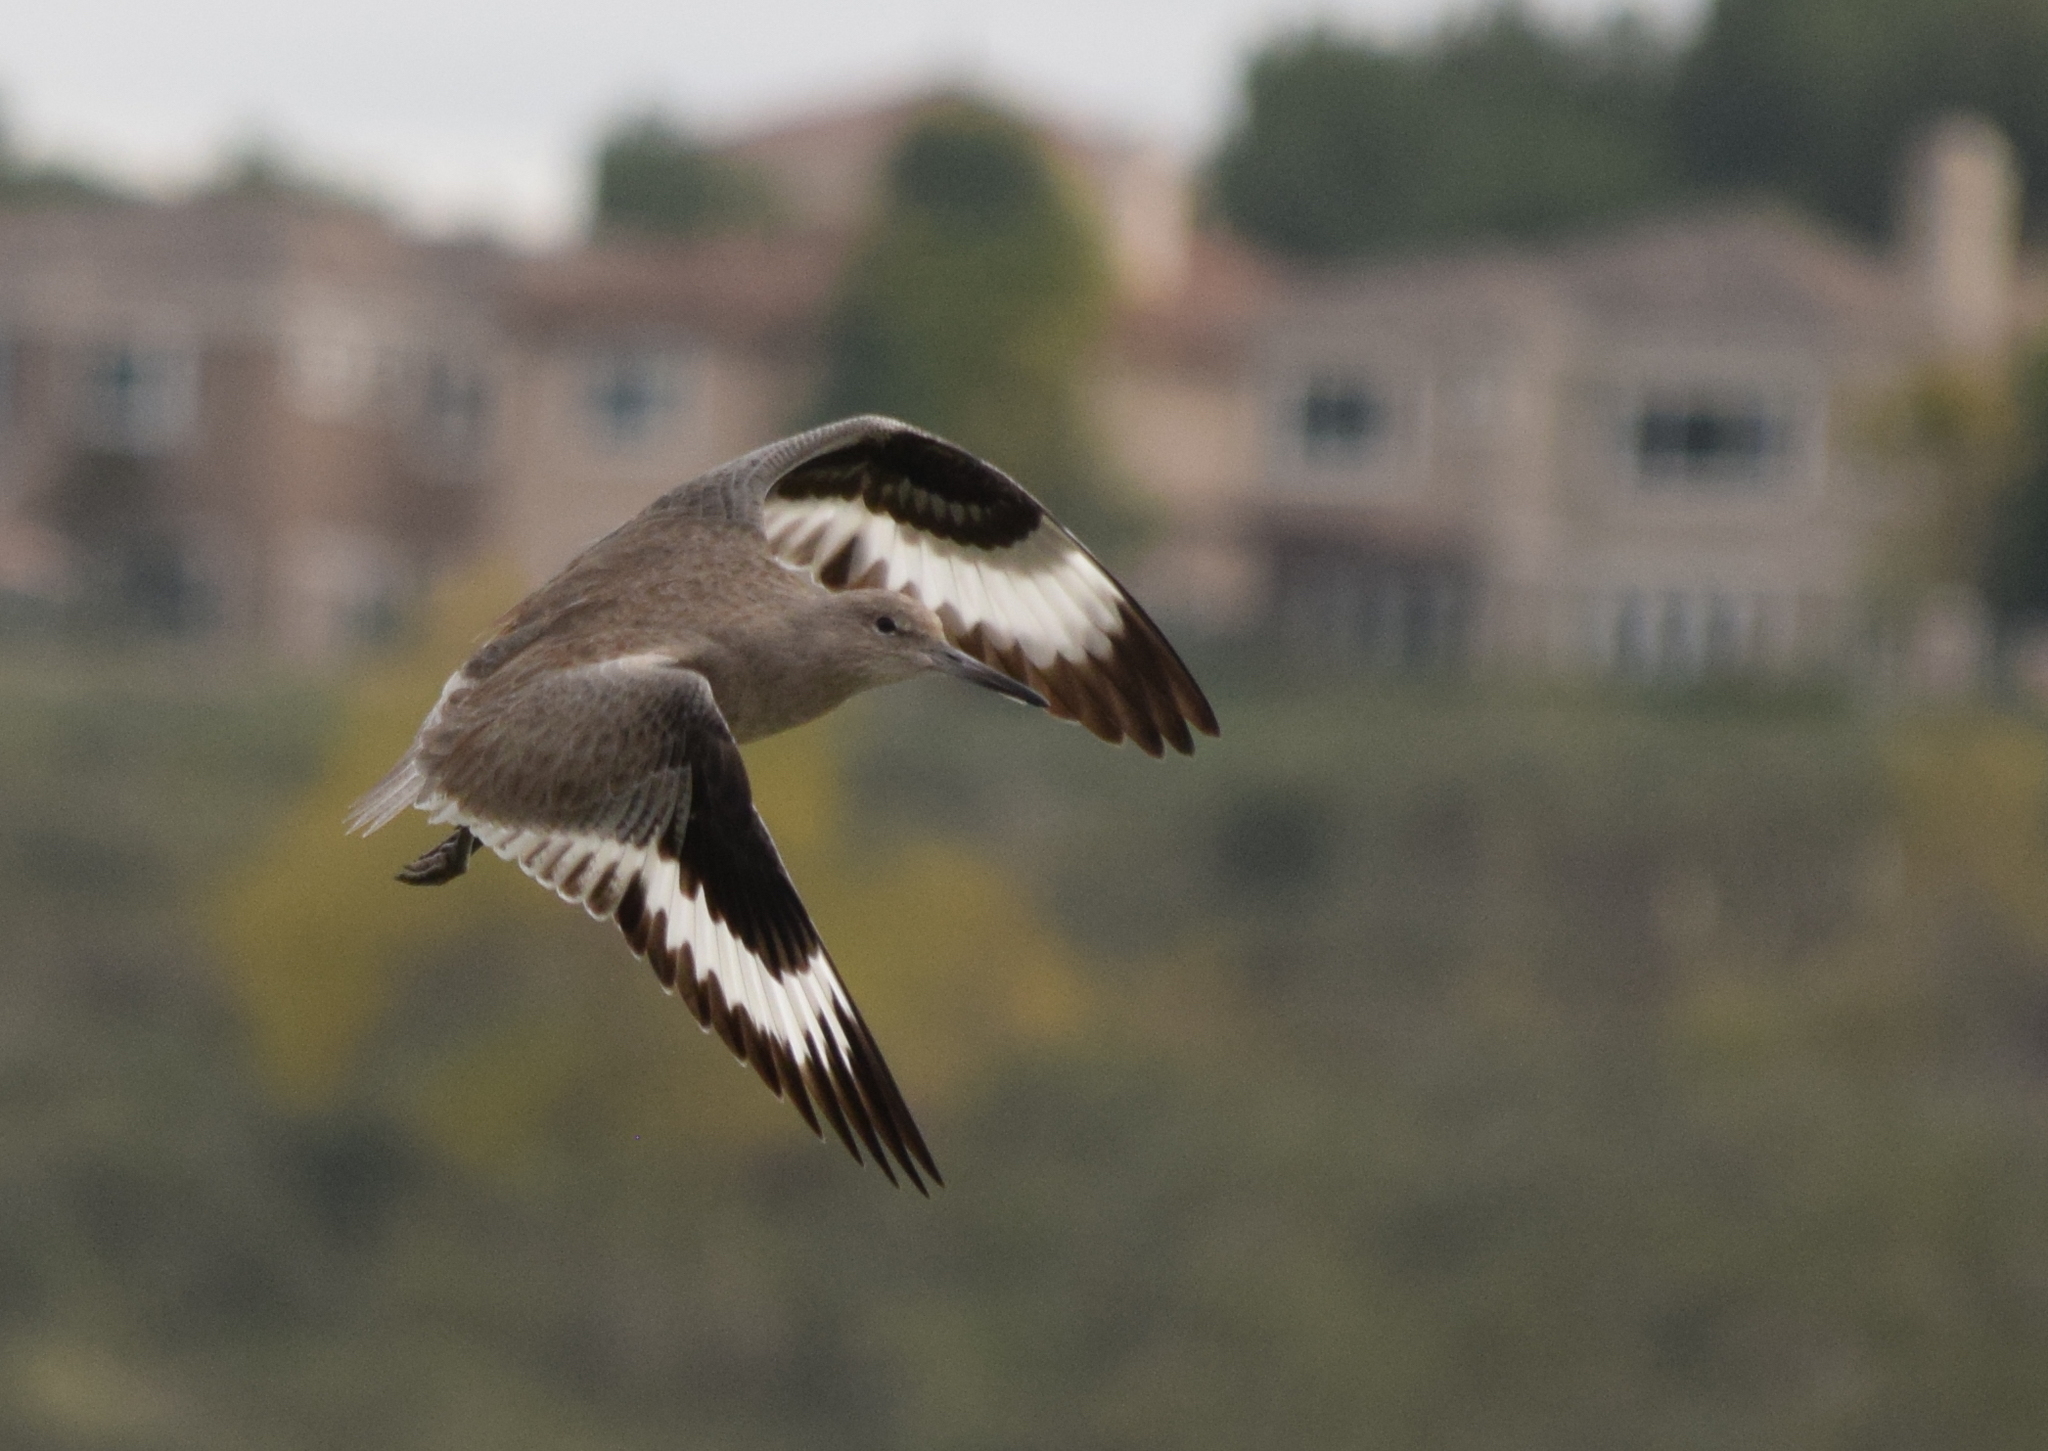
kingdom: Animalia
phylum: Chordata
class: Aves
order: Charadriiformes
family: Scolopacidae
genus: Tringa
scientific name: Tringa semipalmata
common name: Willet
